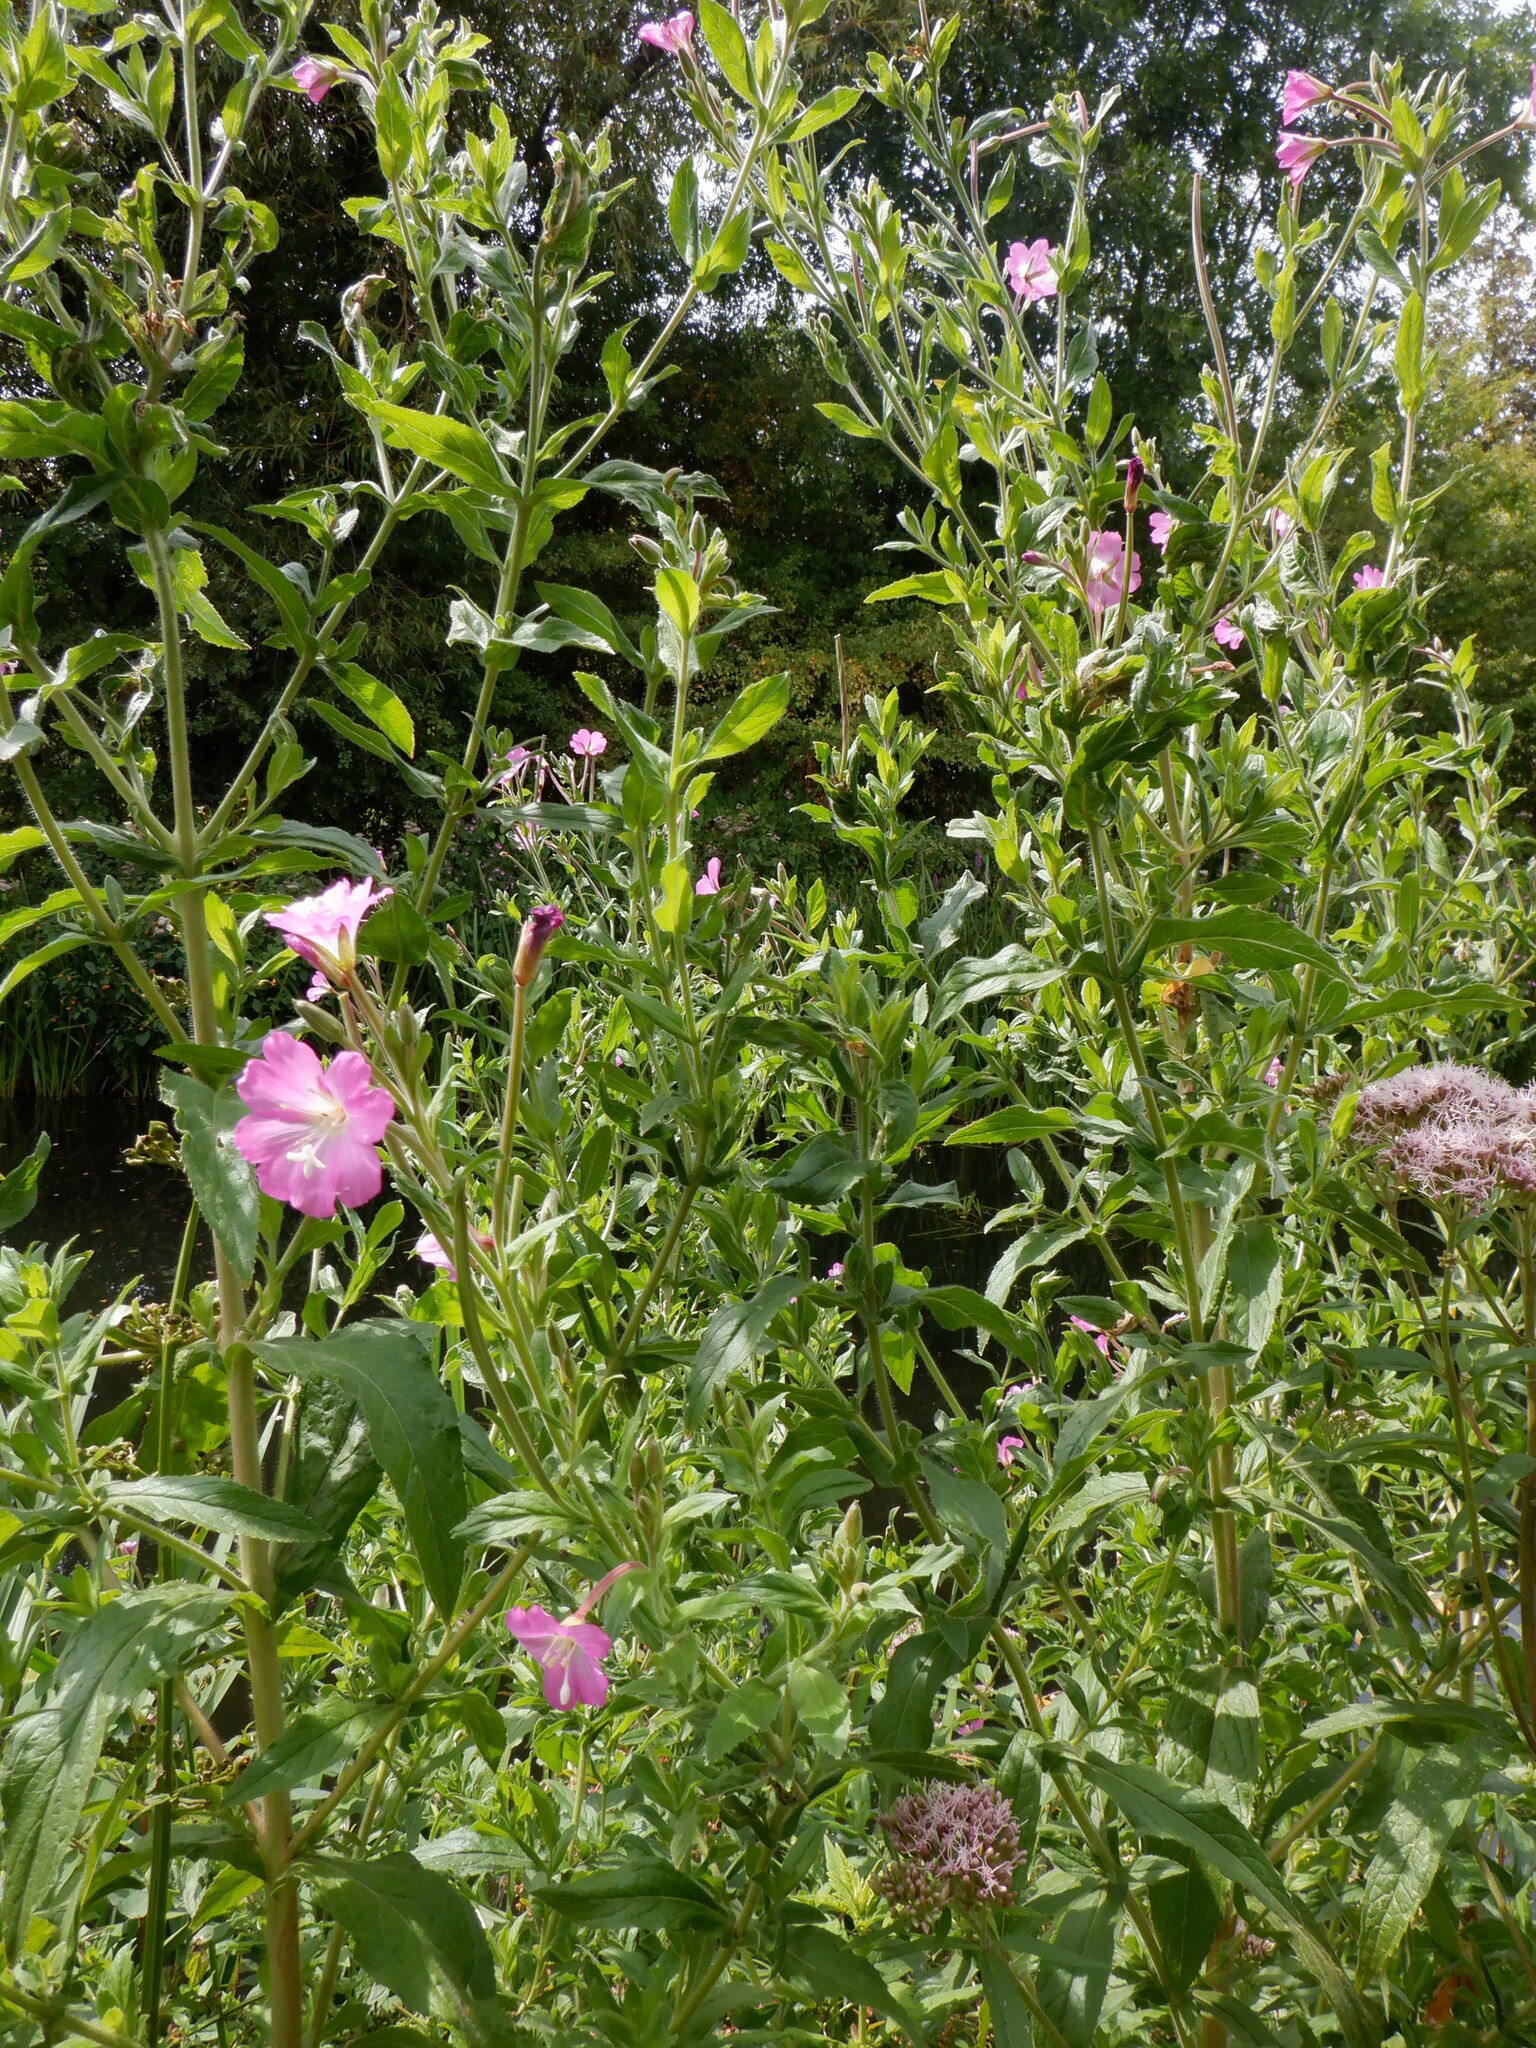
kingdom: Plantae
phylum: Tracheophyta
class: Magnoliopsida
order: Myrtales
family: Onagraceae
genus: Epilobium
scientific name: Epilobium hirsutum
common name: Great willowherb
